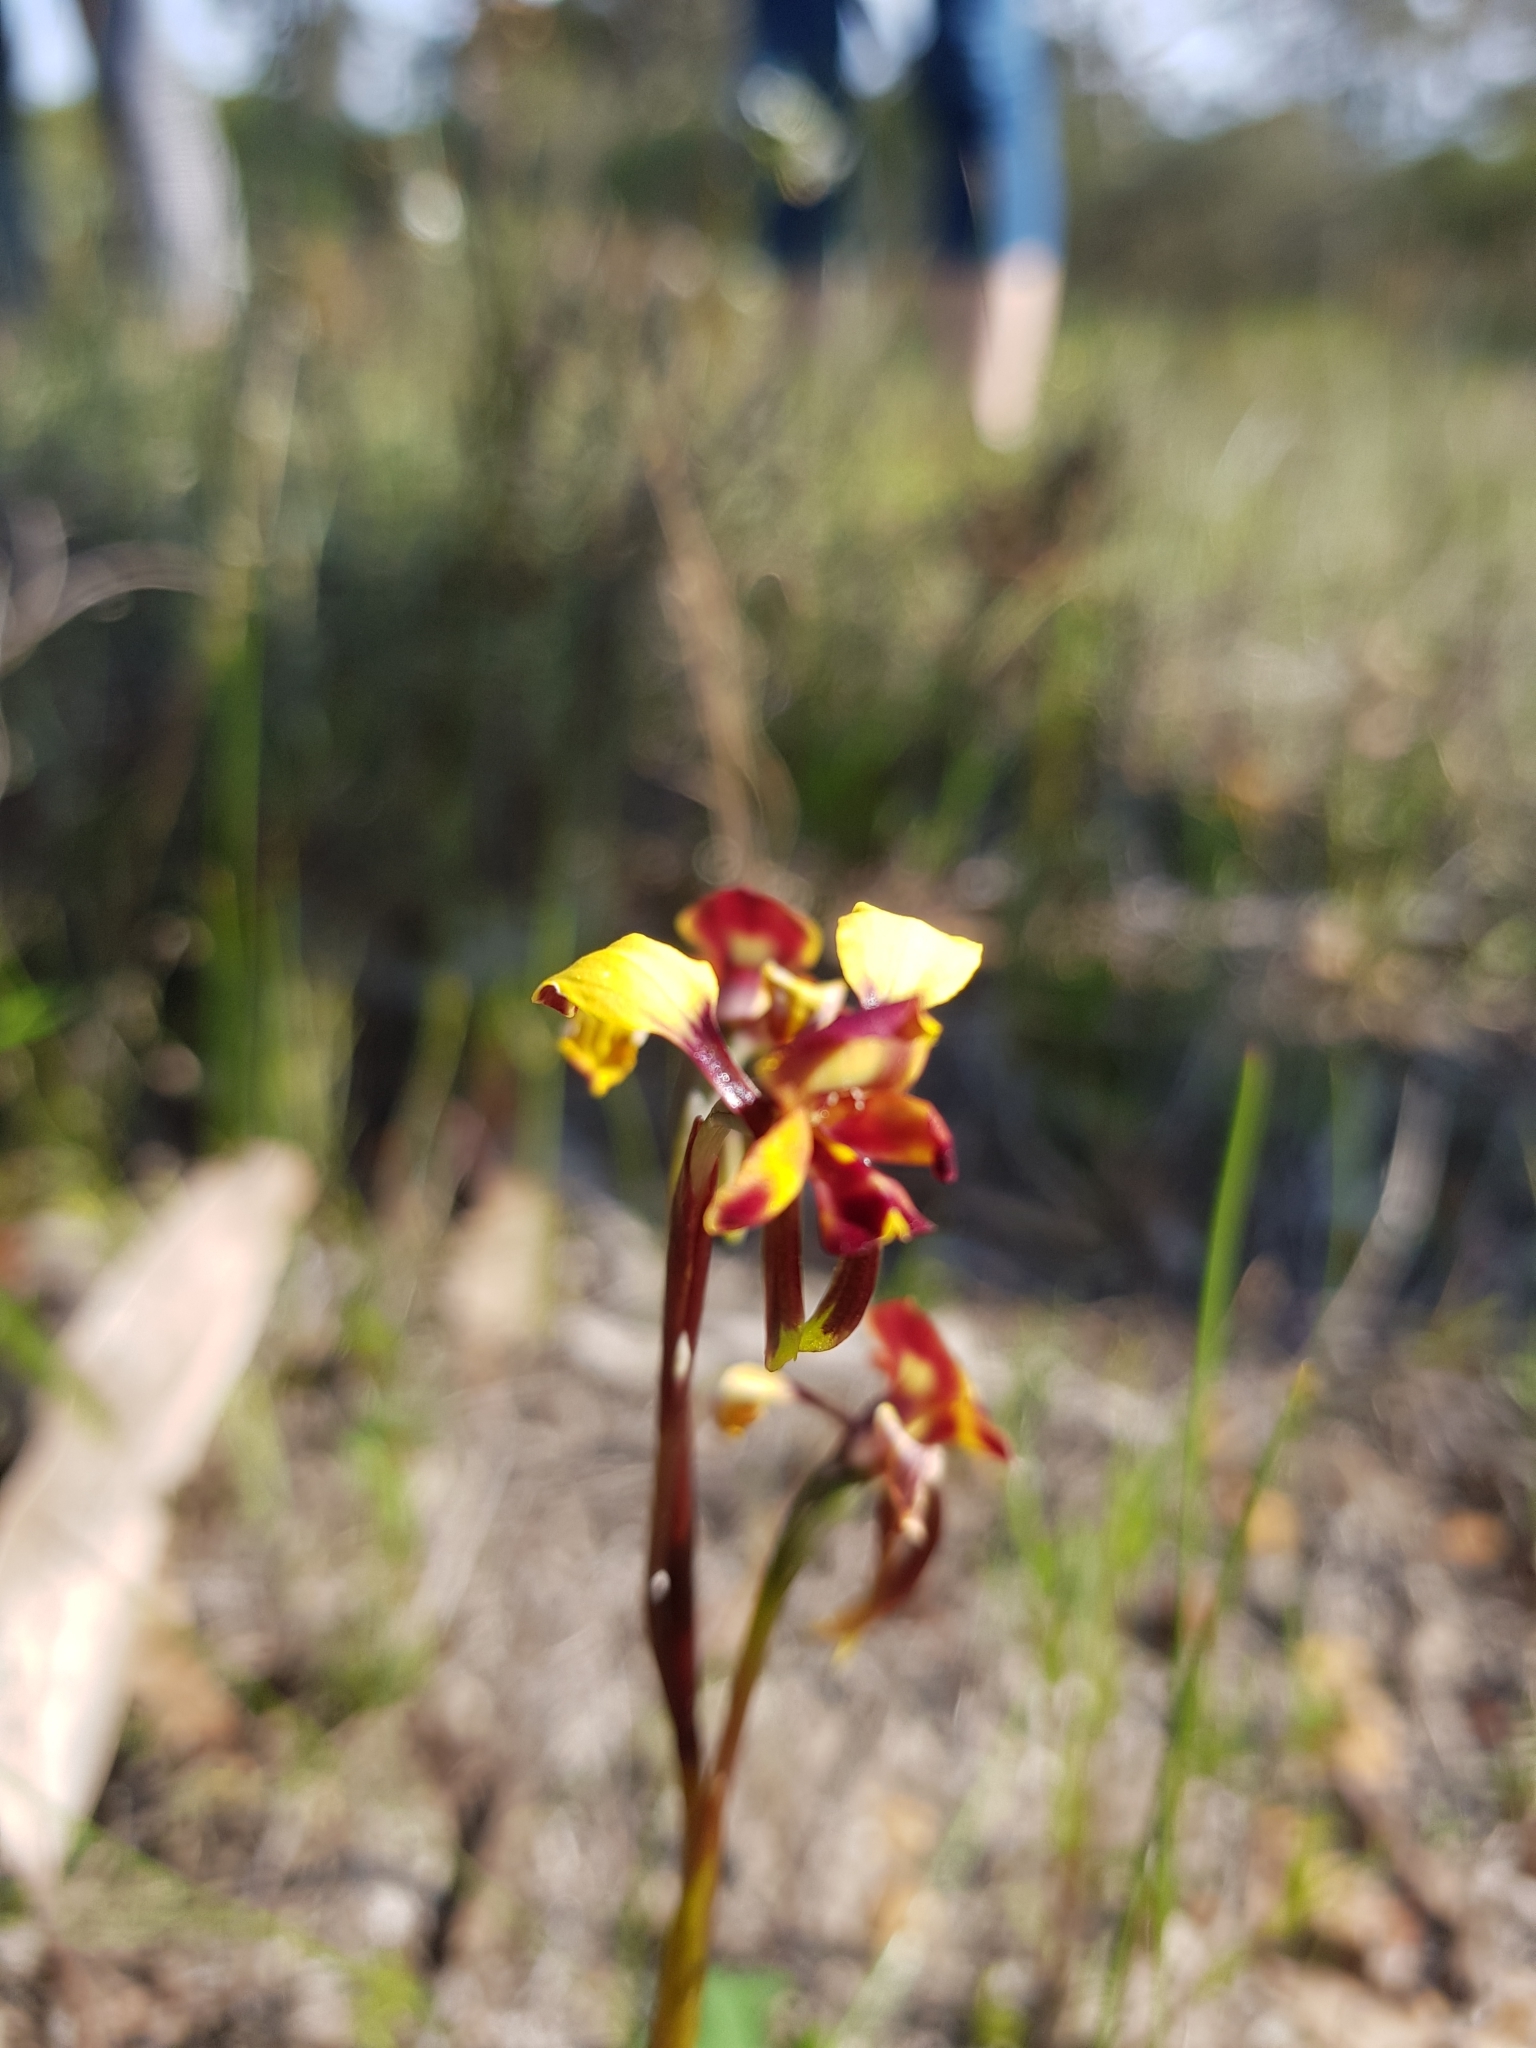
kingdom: Plantae
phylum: Tracheophyta
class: Liliopsida
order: Asparagales
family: Orchidaceae
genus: Diuris
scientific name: Diuris porrifolia
